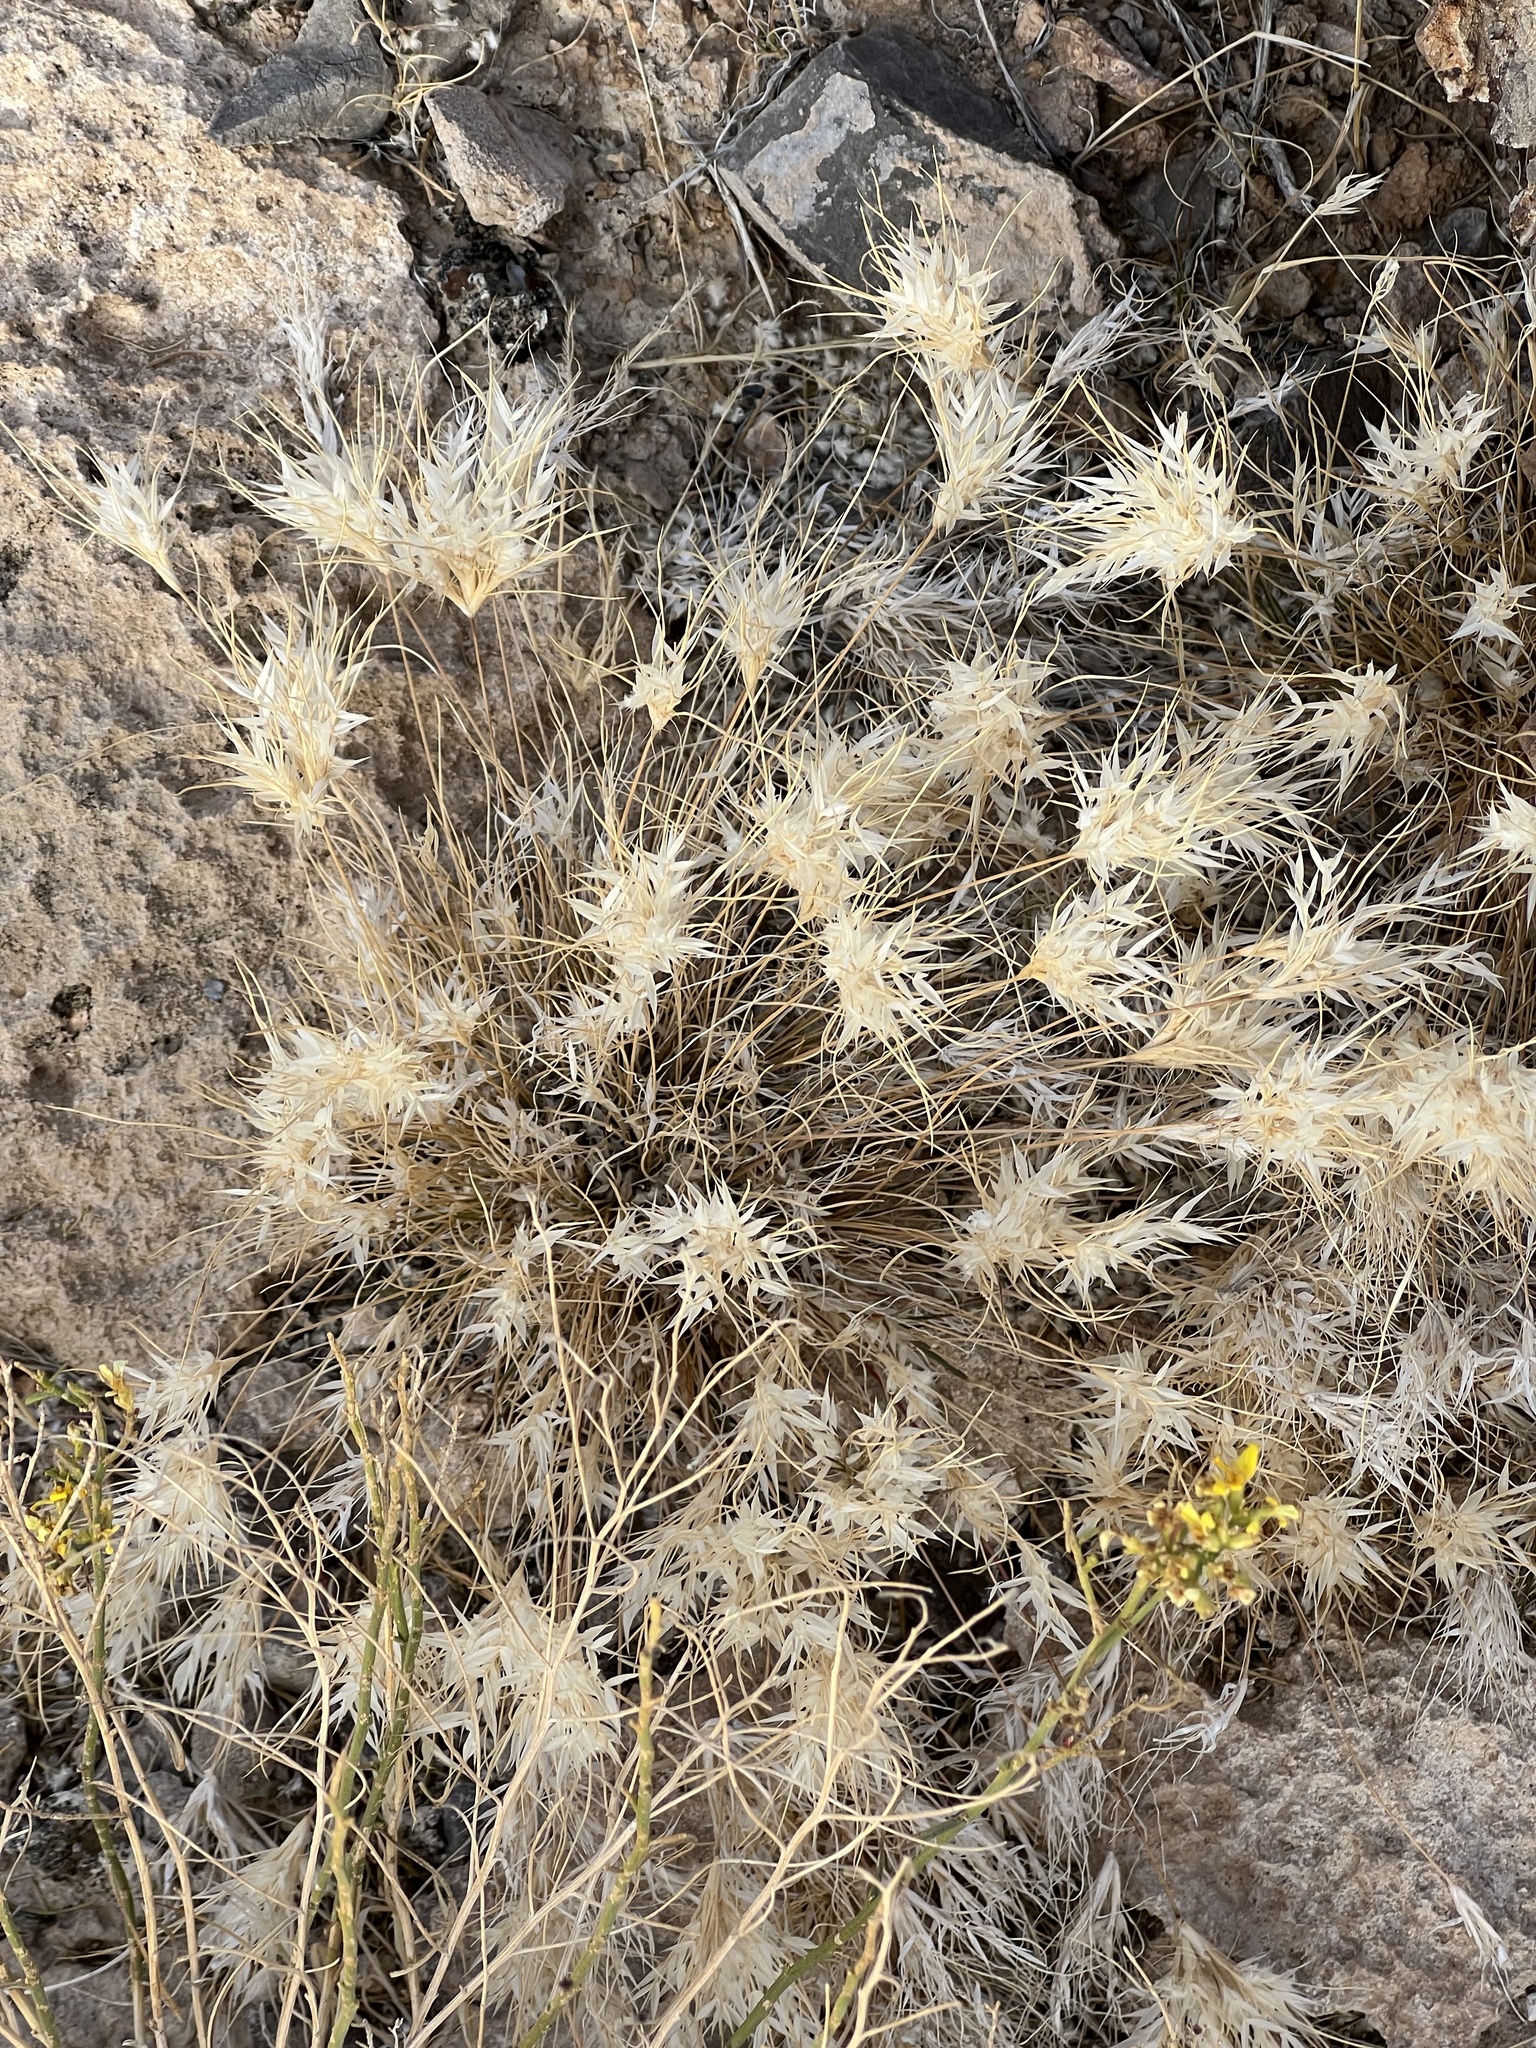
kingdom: Plantae
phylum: Tracheophyta
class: Liliopsida
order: Poales
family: Poaceae
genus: Dasyochloa
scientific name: Dasyochloa pulchella
